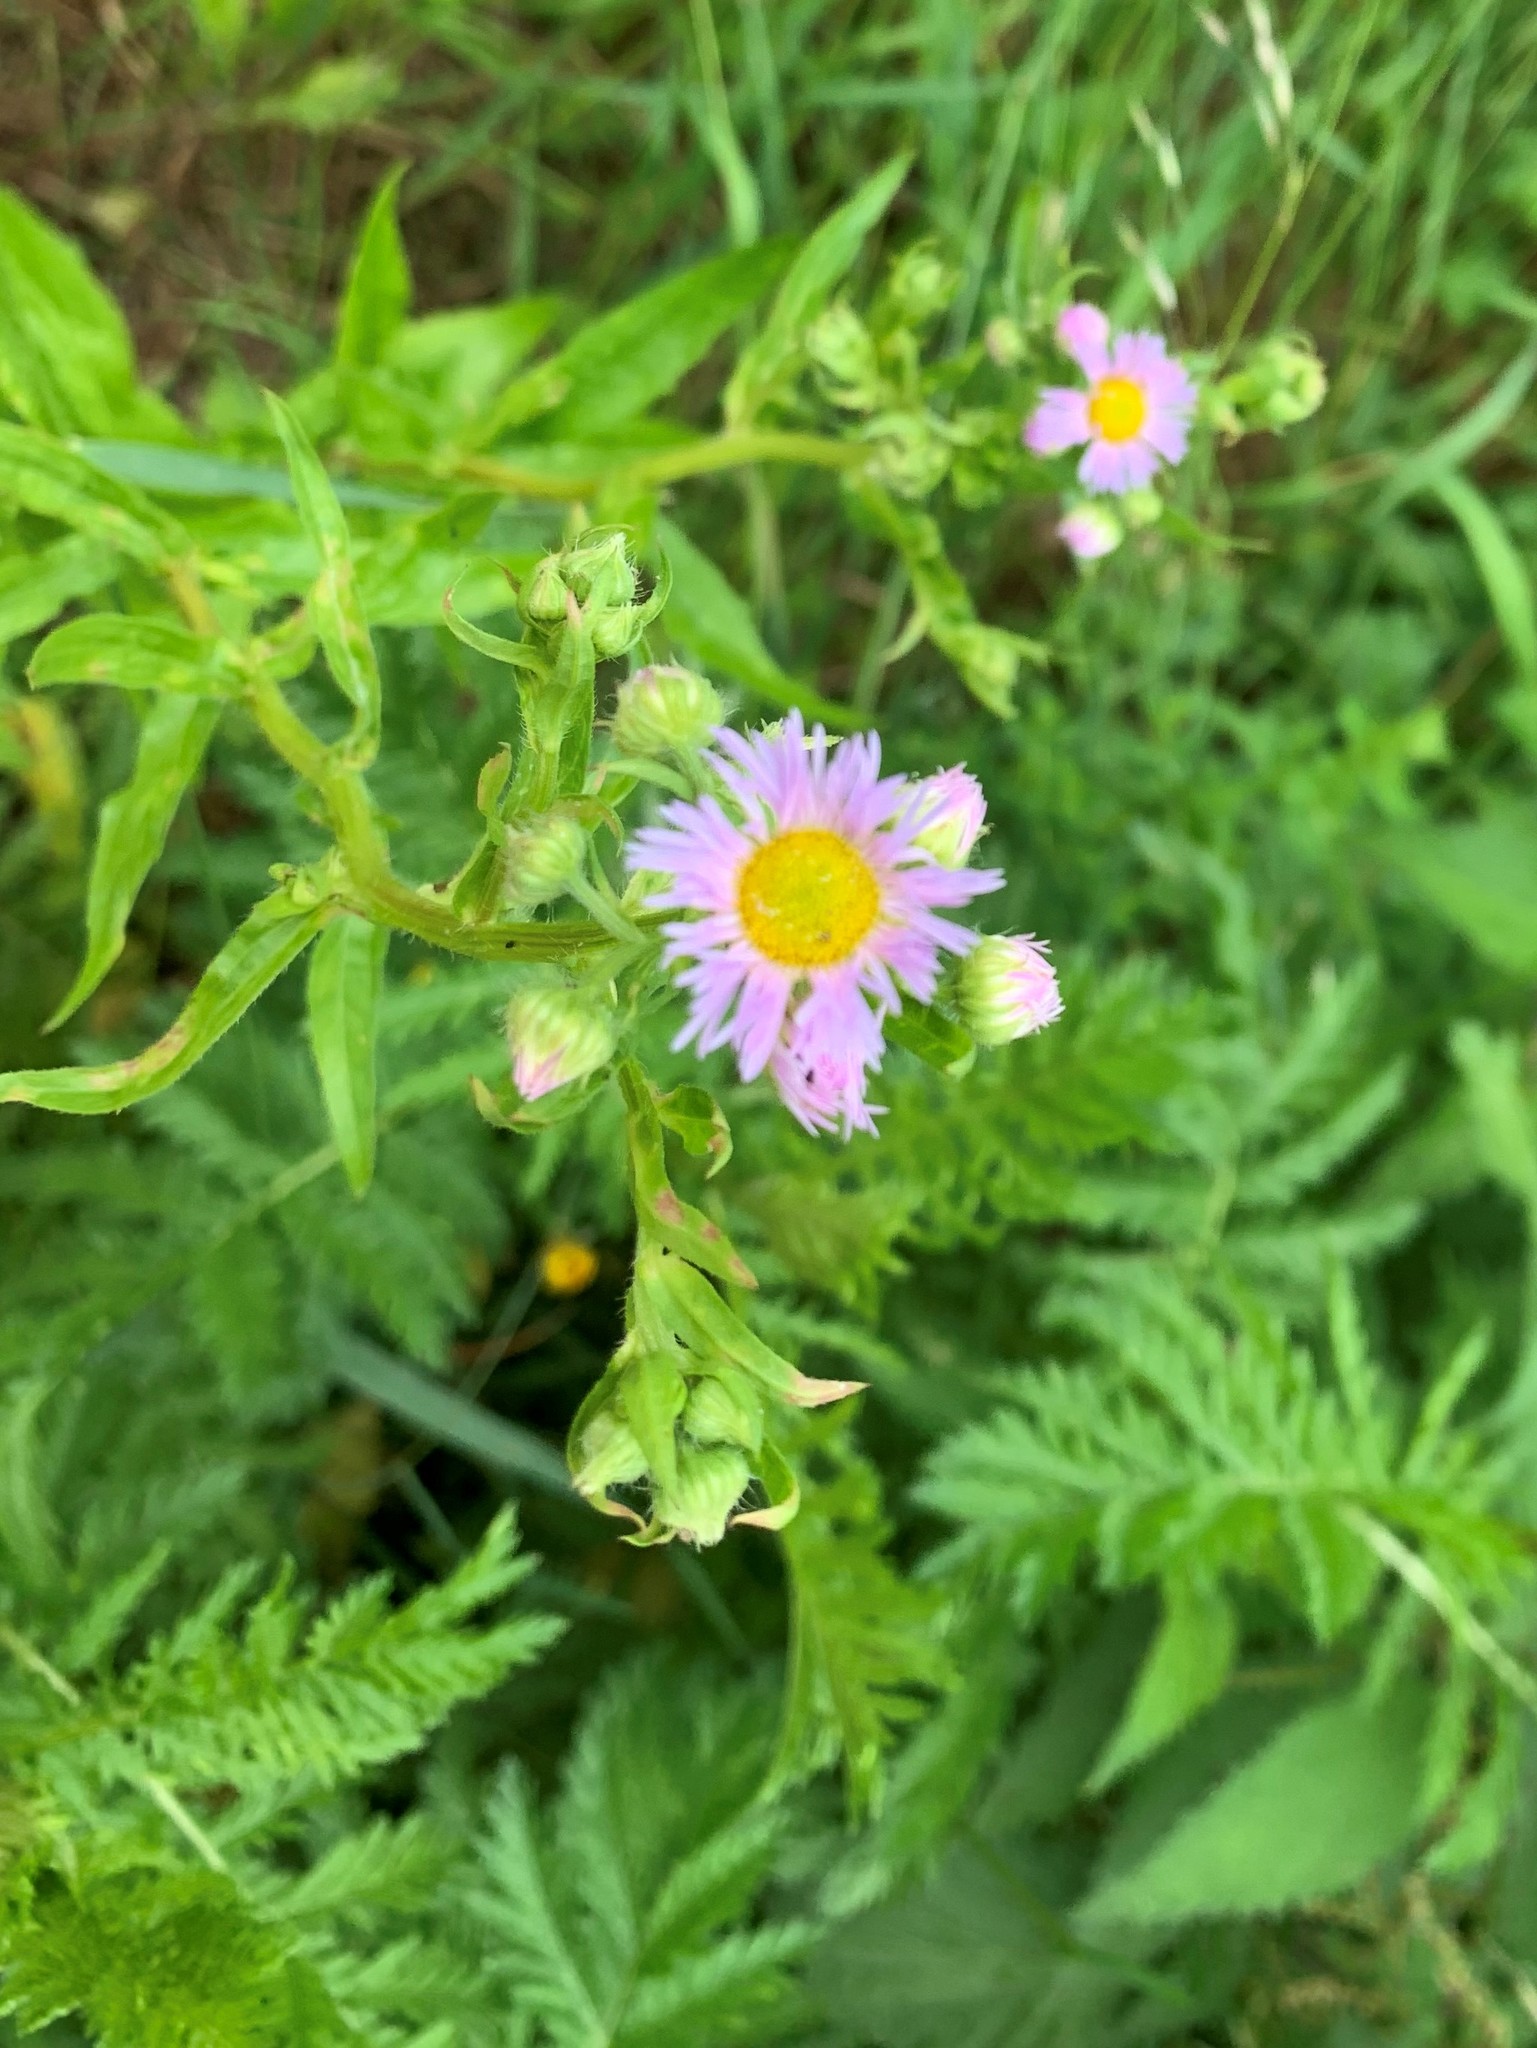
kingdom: Plantae
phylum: Tracheophyta
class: Magnoliopsida
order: Asterales
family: Asteraceae
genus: Erigeron
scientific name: Erigeron annuus
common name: Tall fleabane
